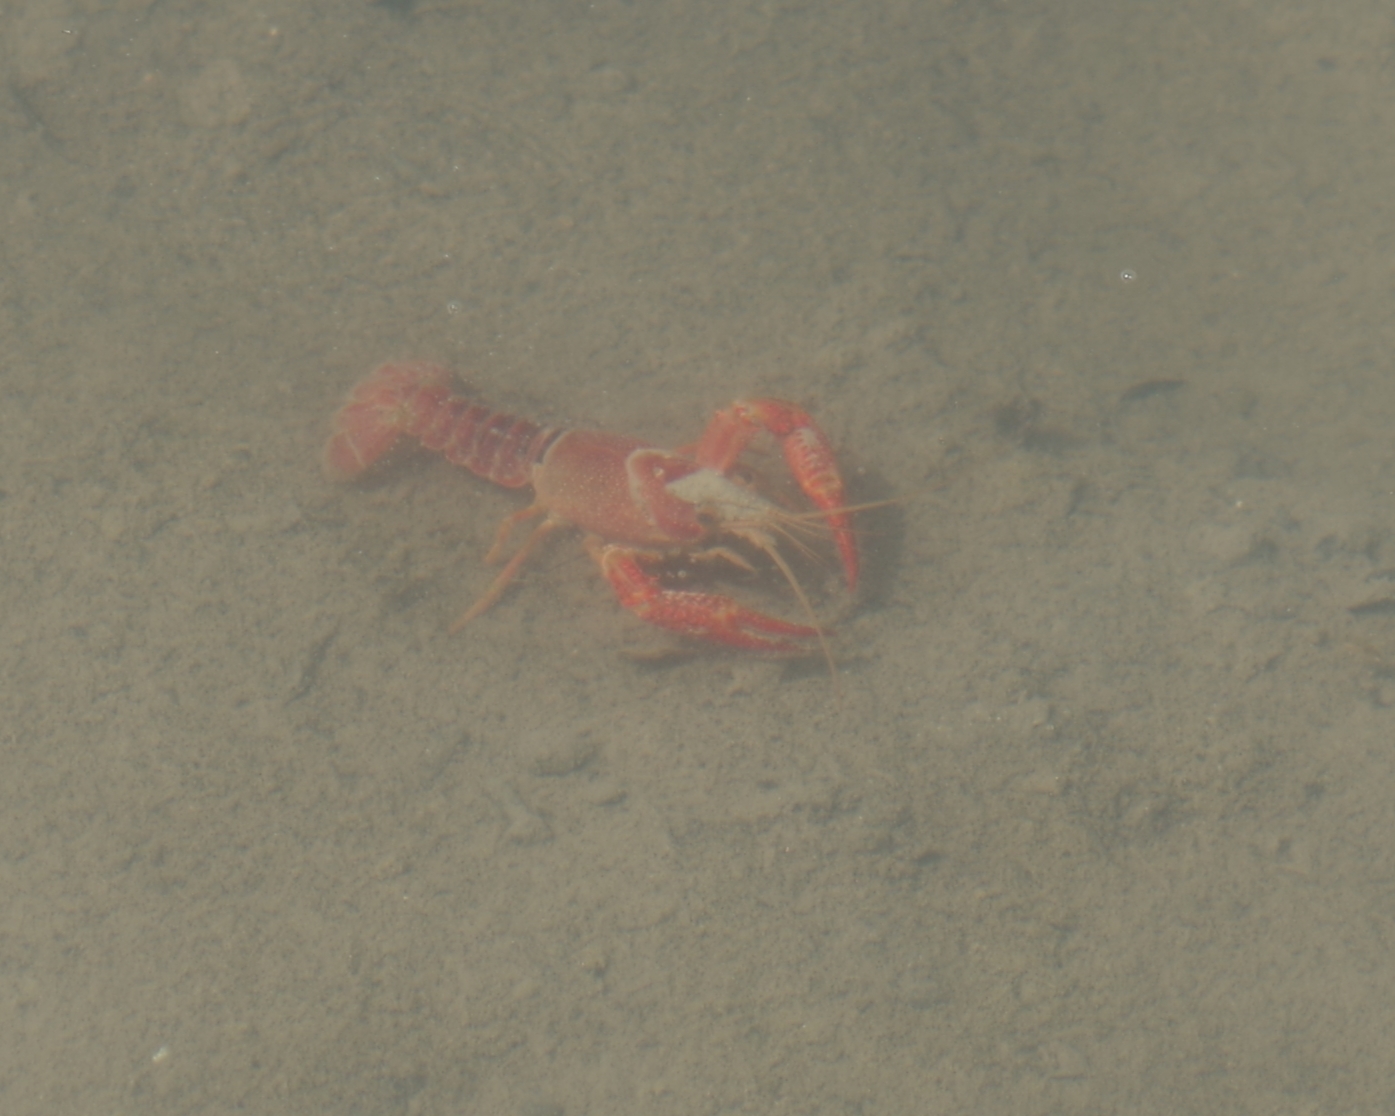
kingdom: Animalia
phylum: Arthropoda
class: Malacostraca
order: Decapoda
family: Cambaridae
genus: Procambarus
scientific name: Procambarus clarkii
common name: Red swamp crayfish
